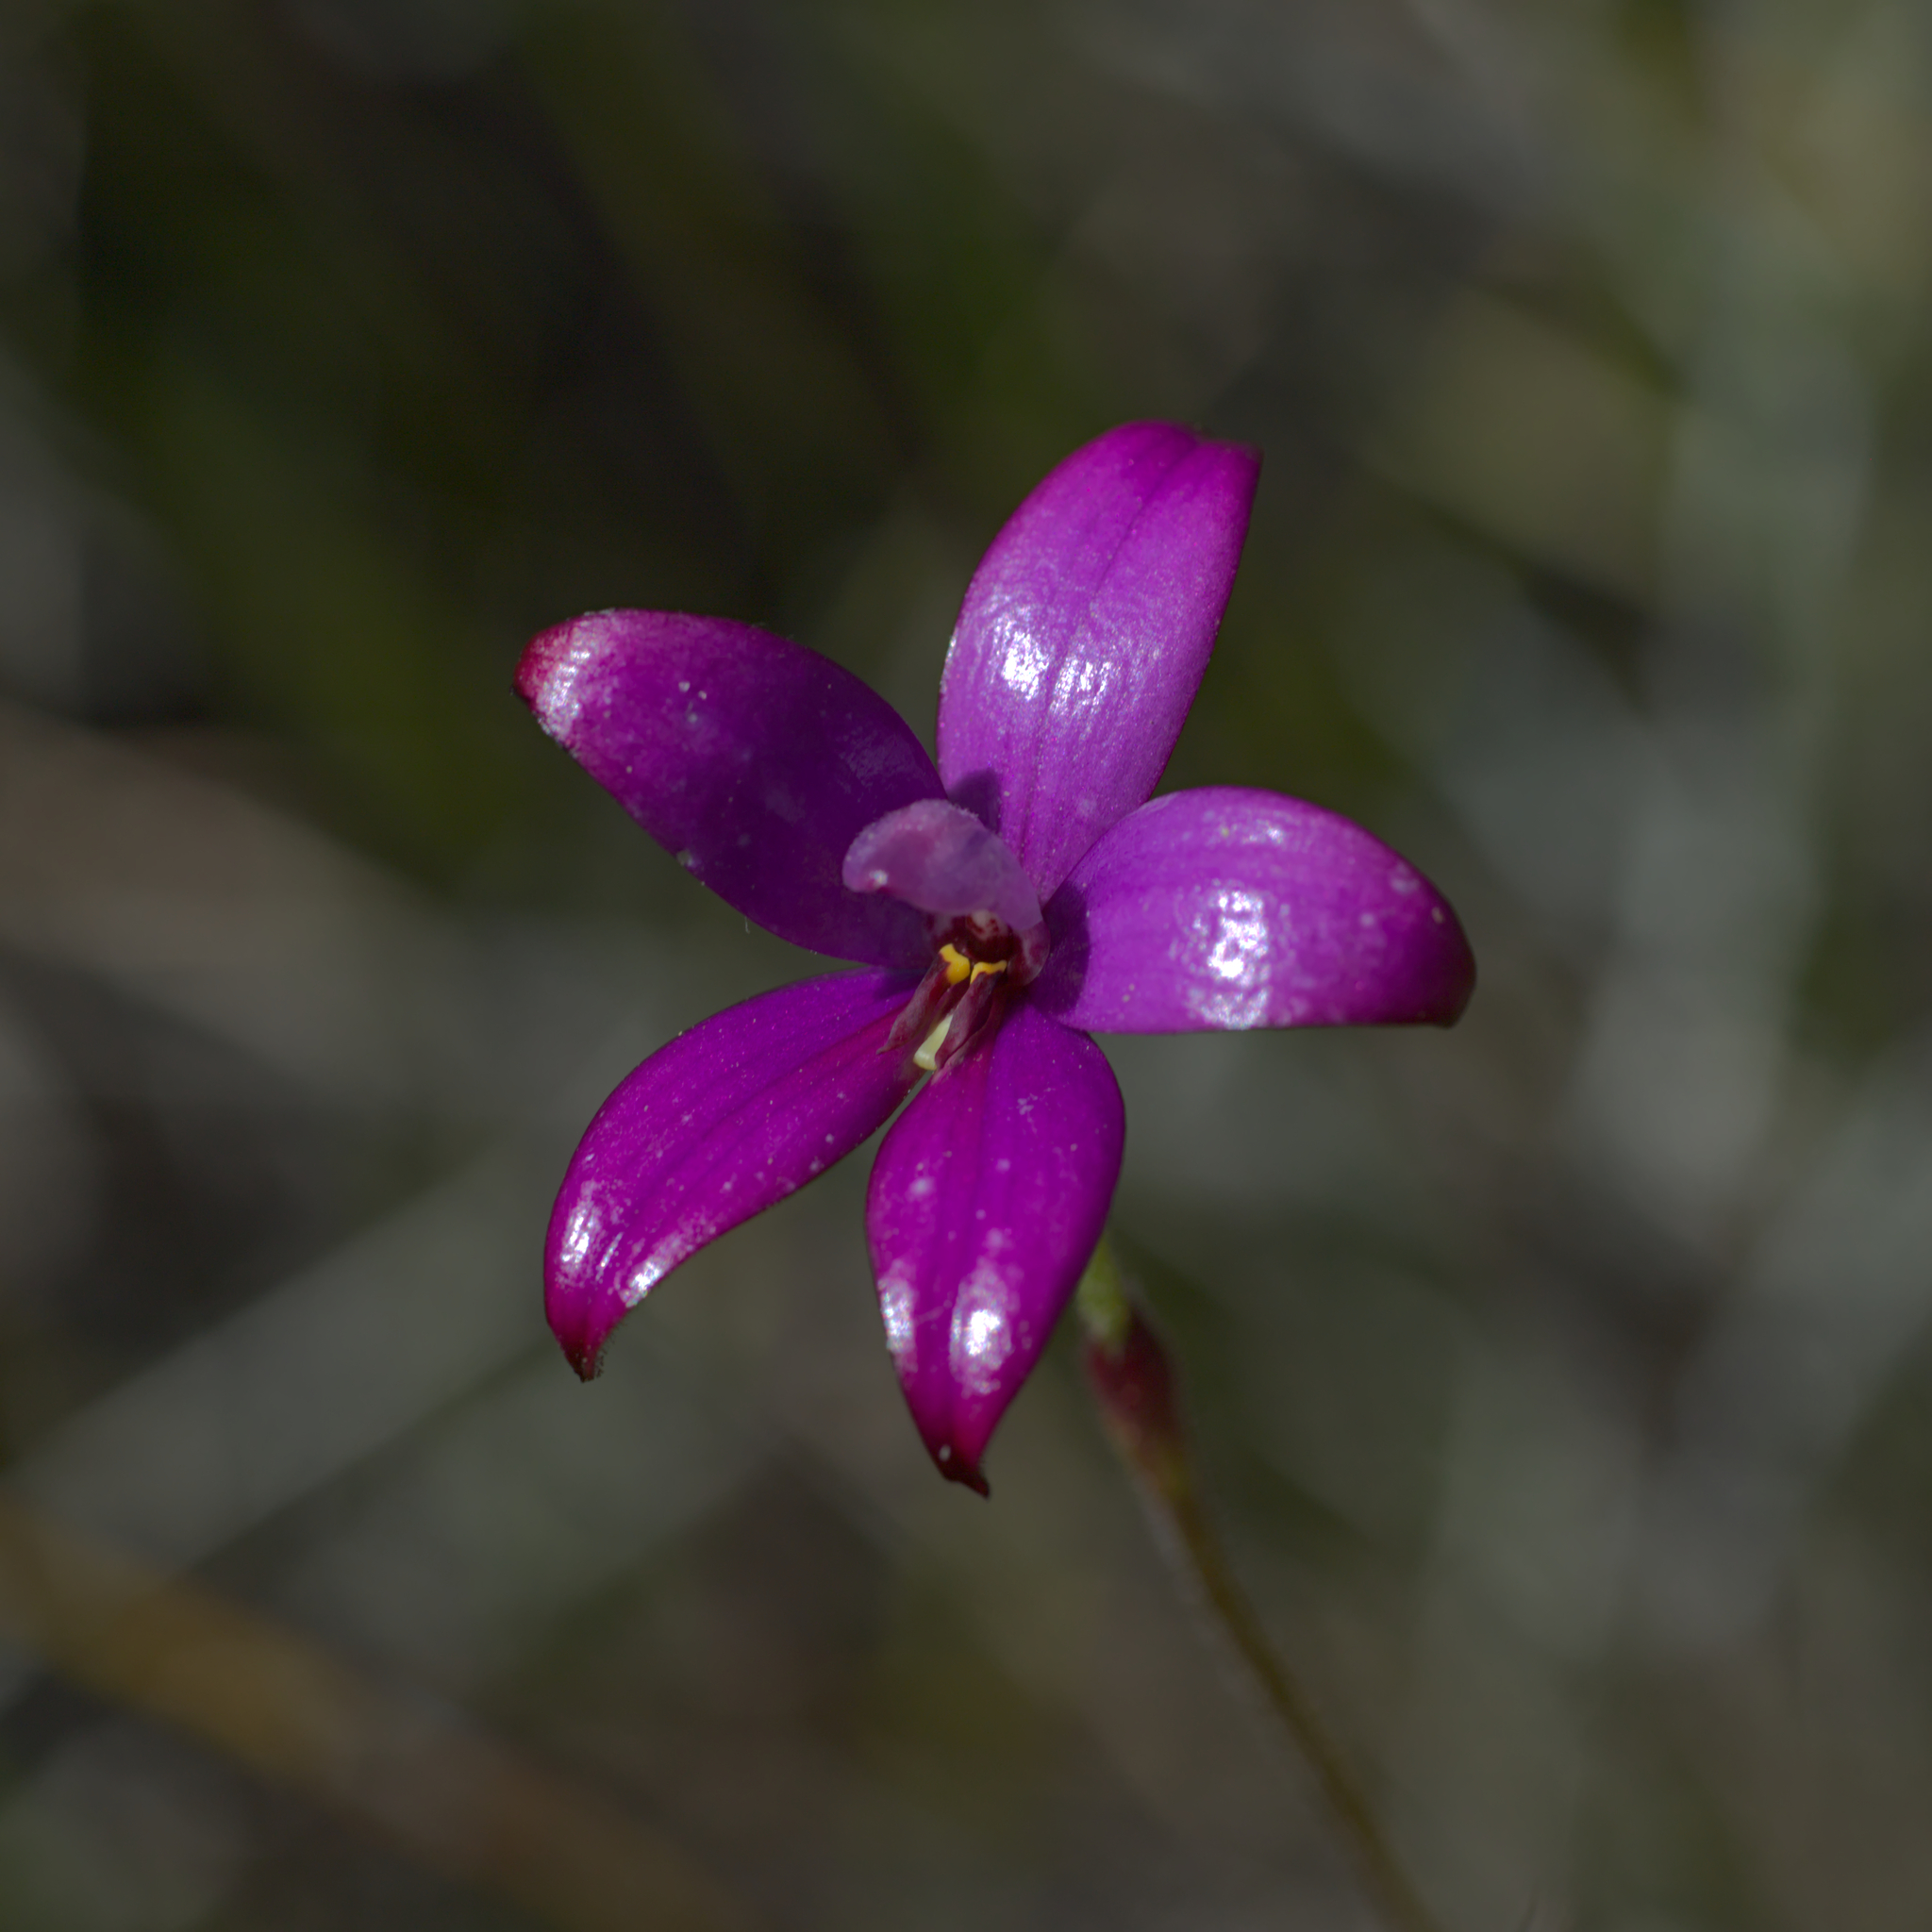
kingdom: Plantae
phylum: Tracheophyta
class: Liliopsida
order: Asparagales
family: Orchidaceae
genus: Caladenia
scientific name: Caladenia brunonis
